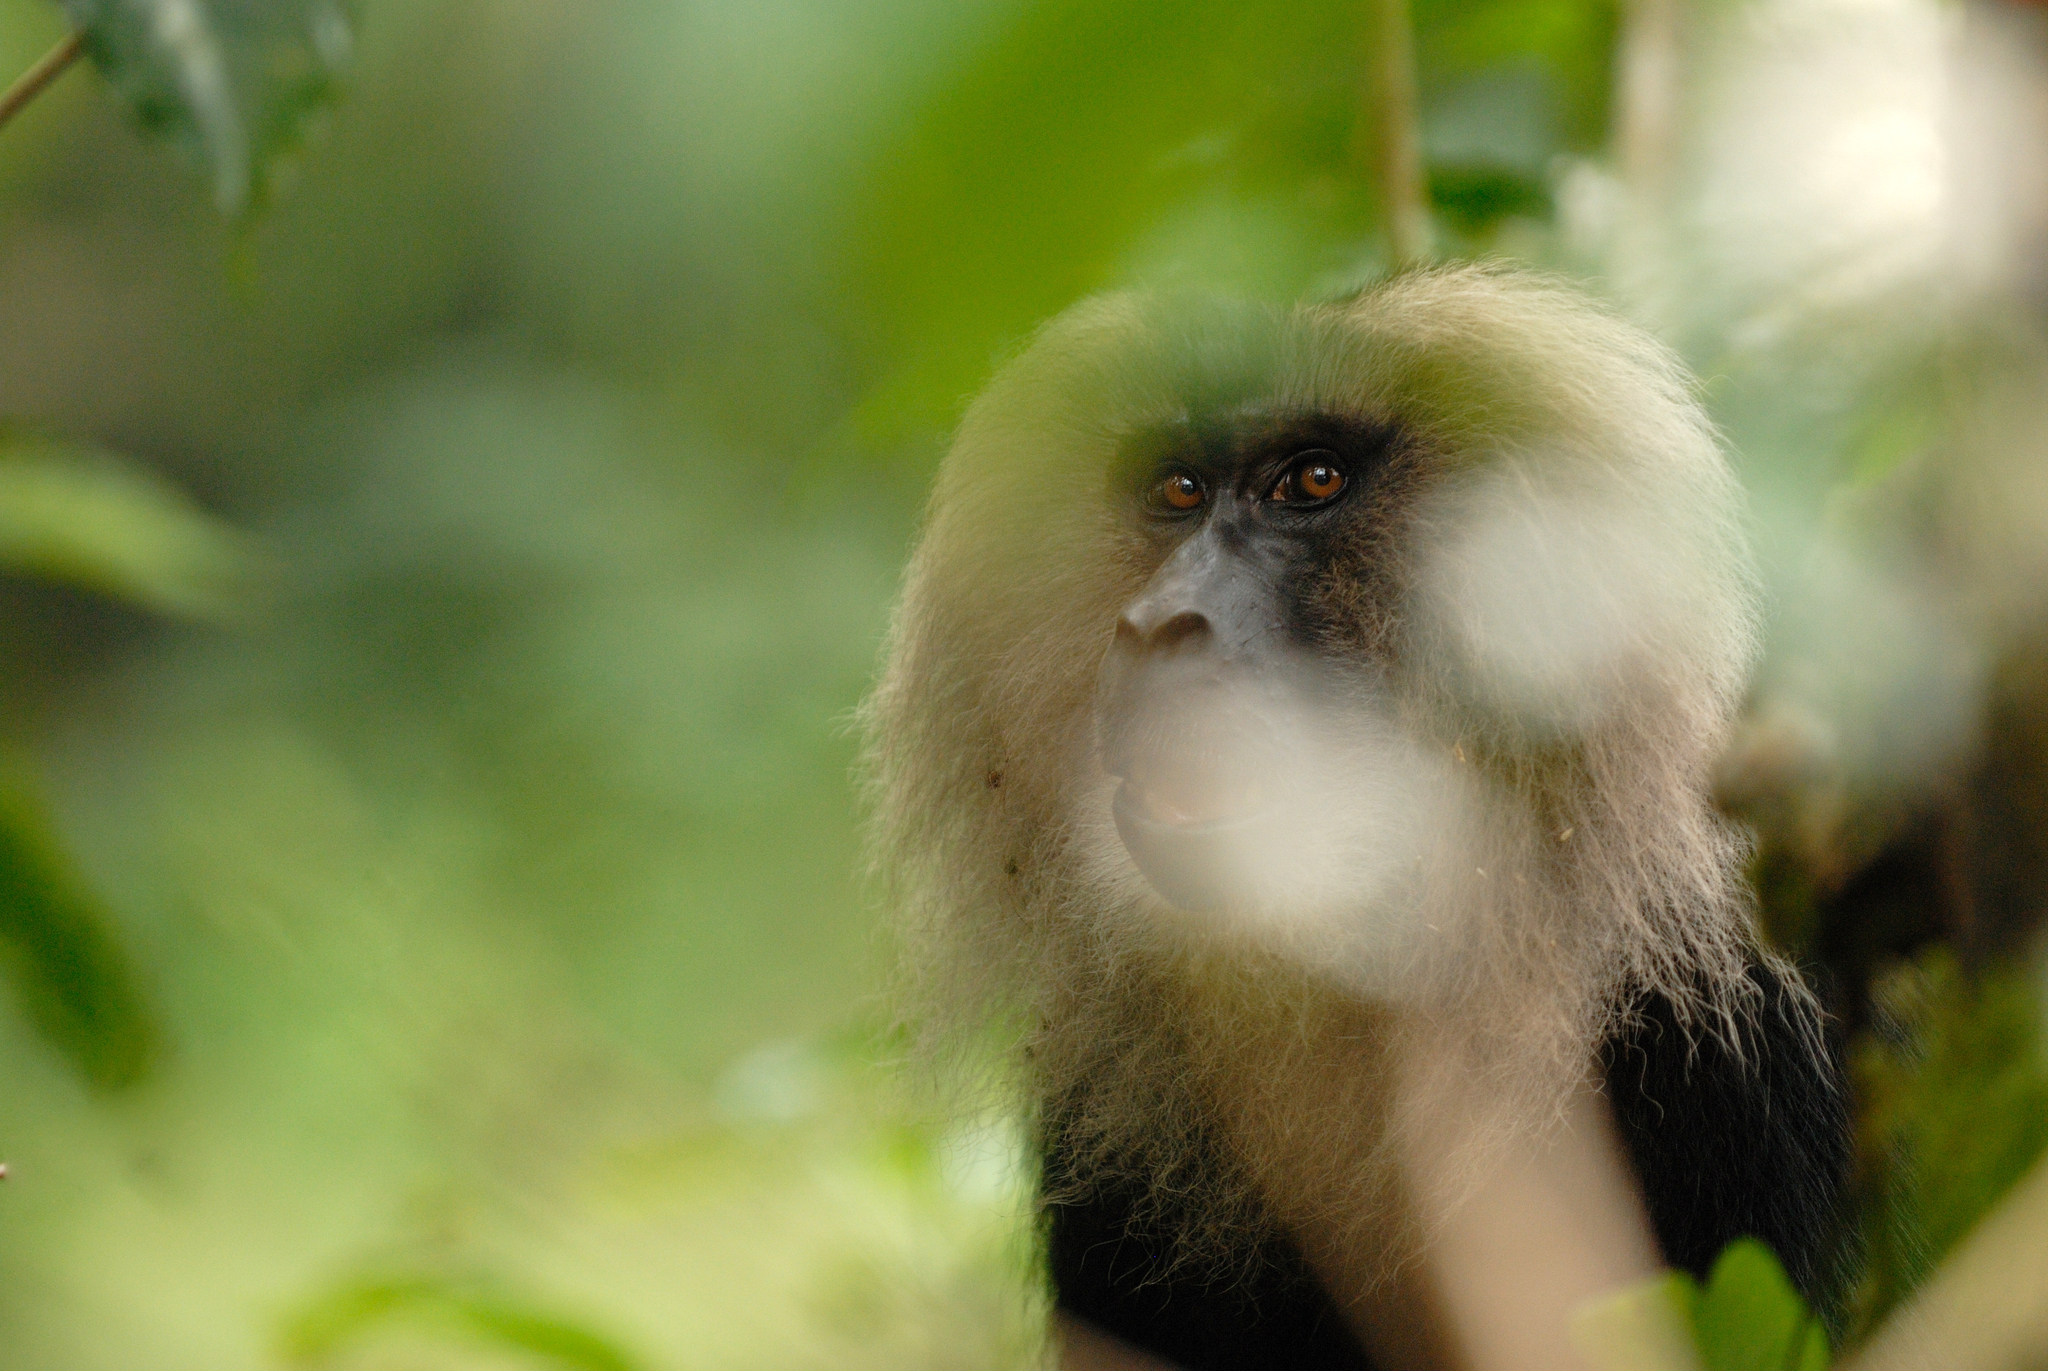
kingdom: Animalia
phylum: Chordata
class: Mammalia
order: Primates
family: Cercopithecidae
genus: Macaca
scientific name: Macaca silenus
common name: Lion-tailed macaque
